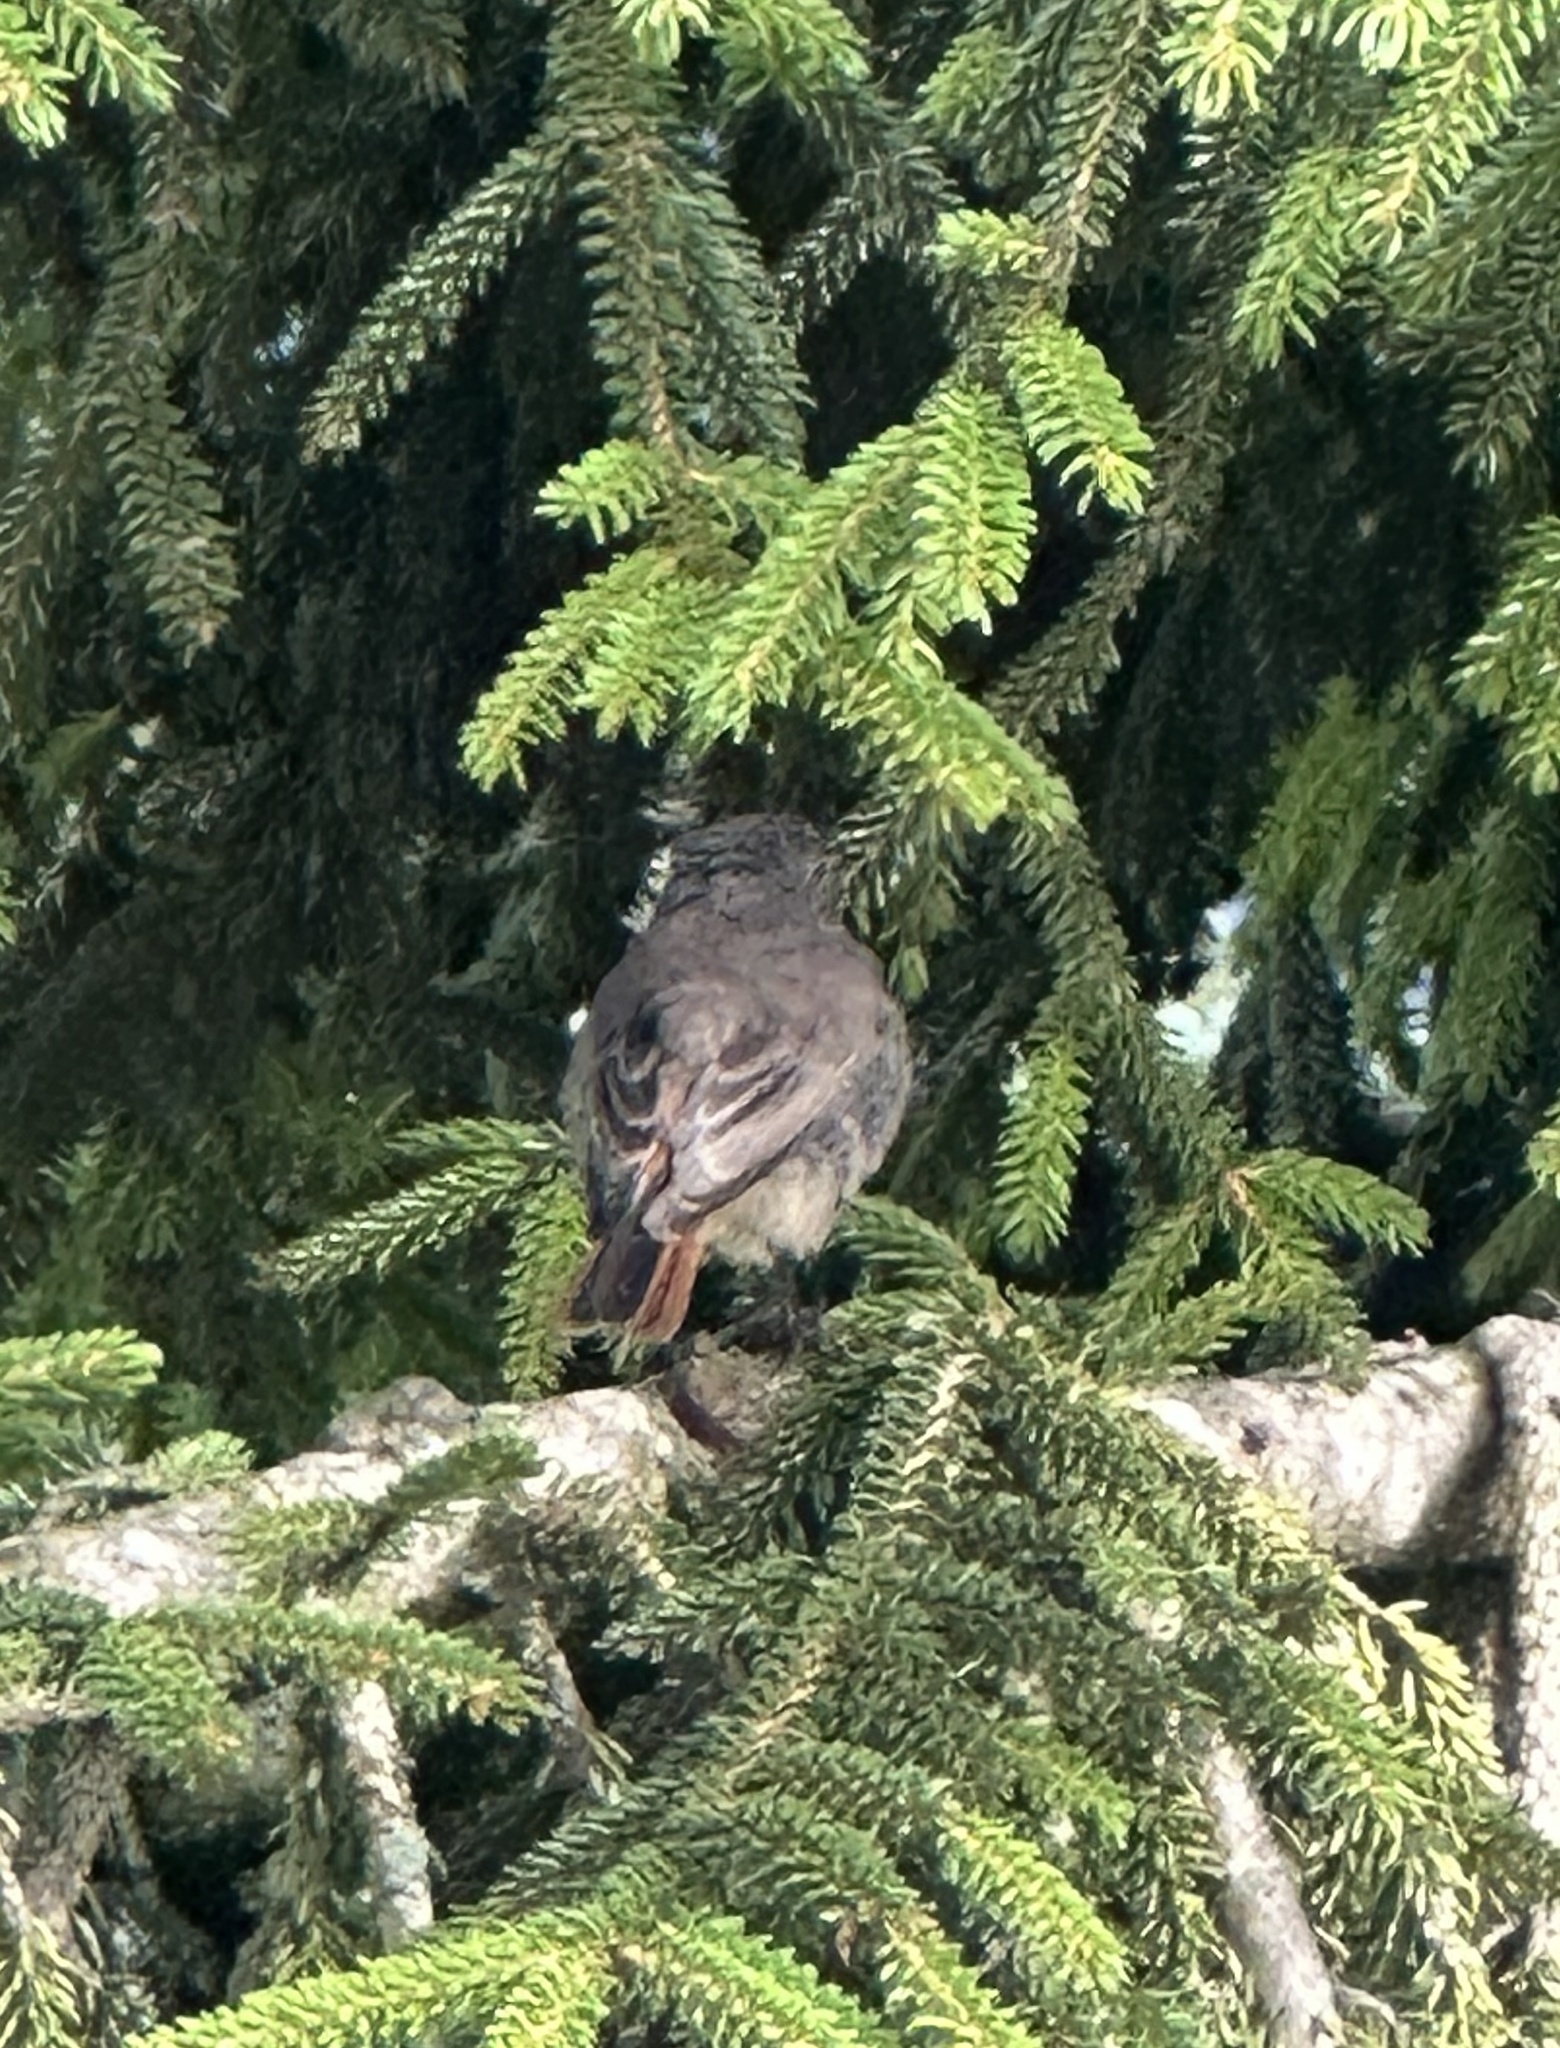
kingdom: Animalia
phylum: Chordata
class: Aves
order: Passeriformes
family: Muscicapidae
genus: Phoenicurus
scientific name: Phoenicurus ochruros
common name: Black redstart
